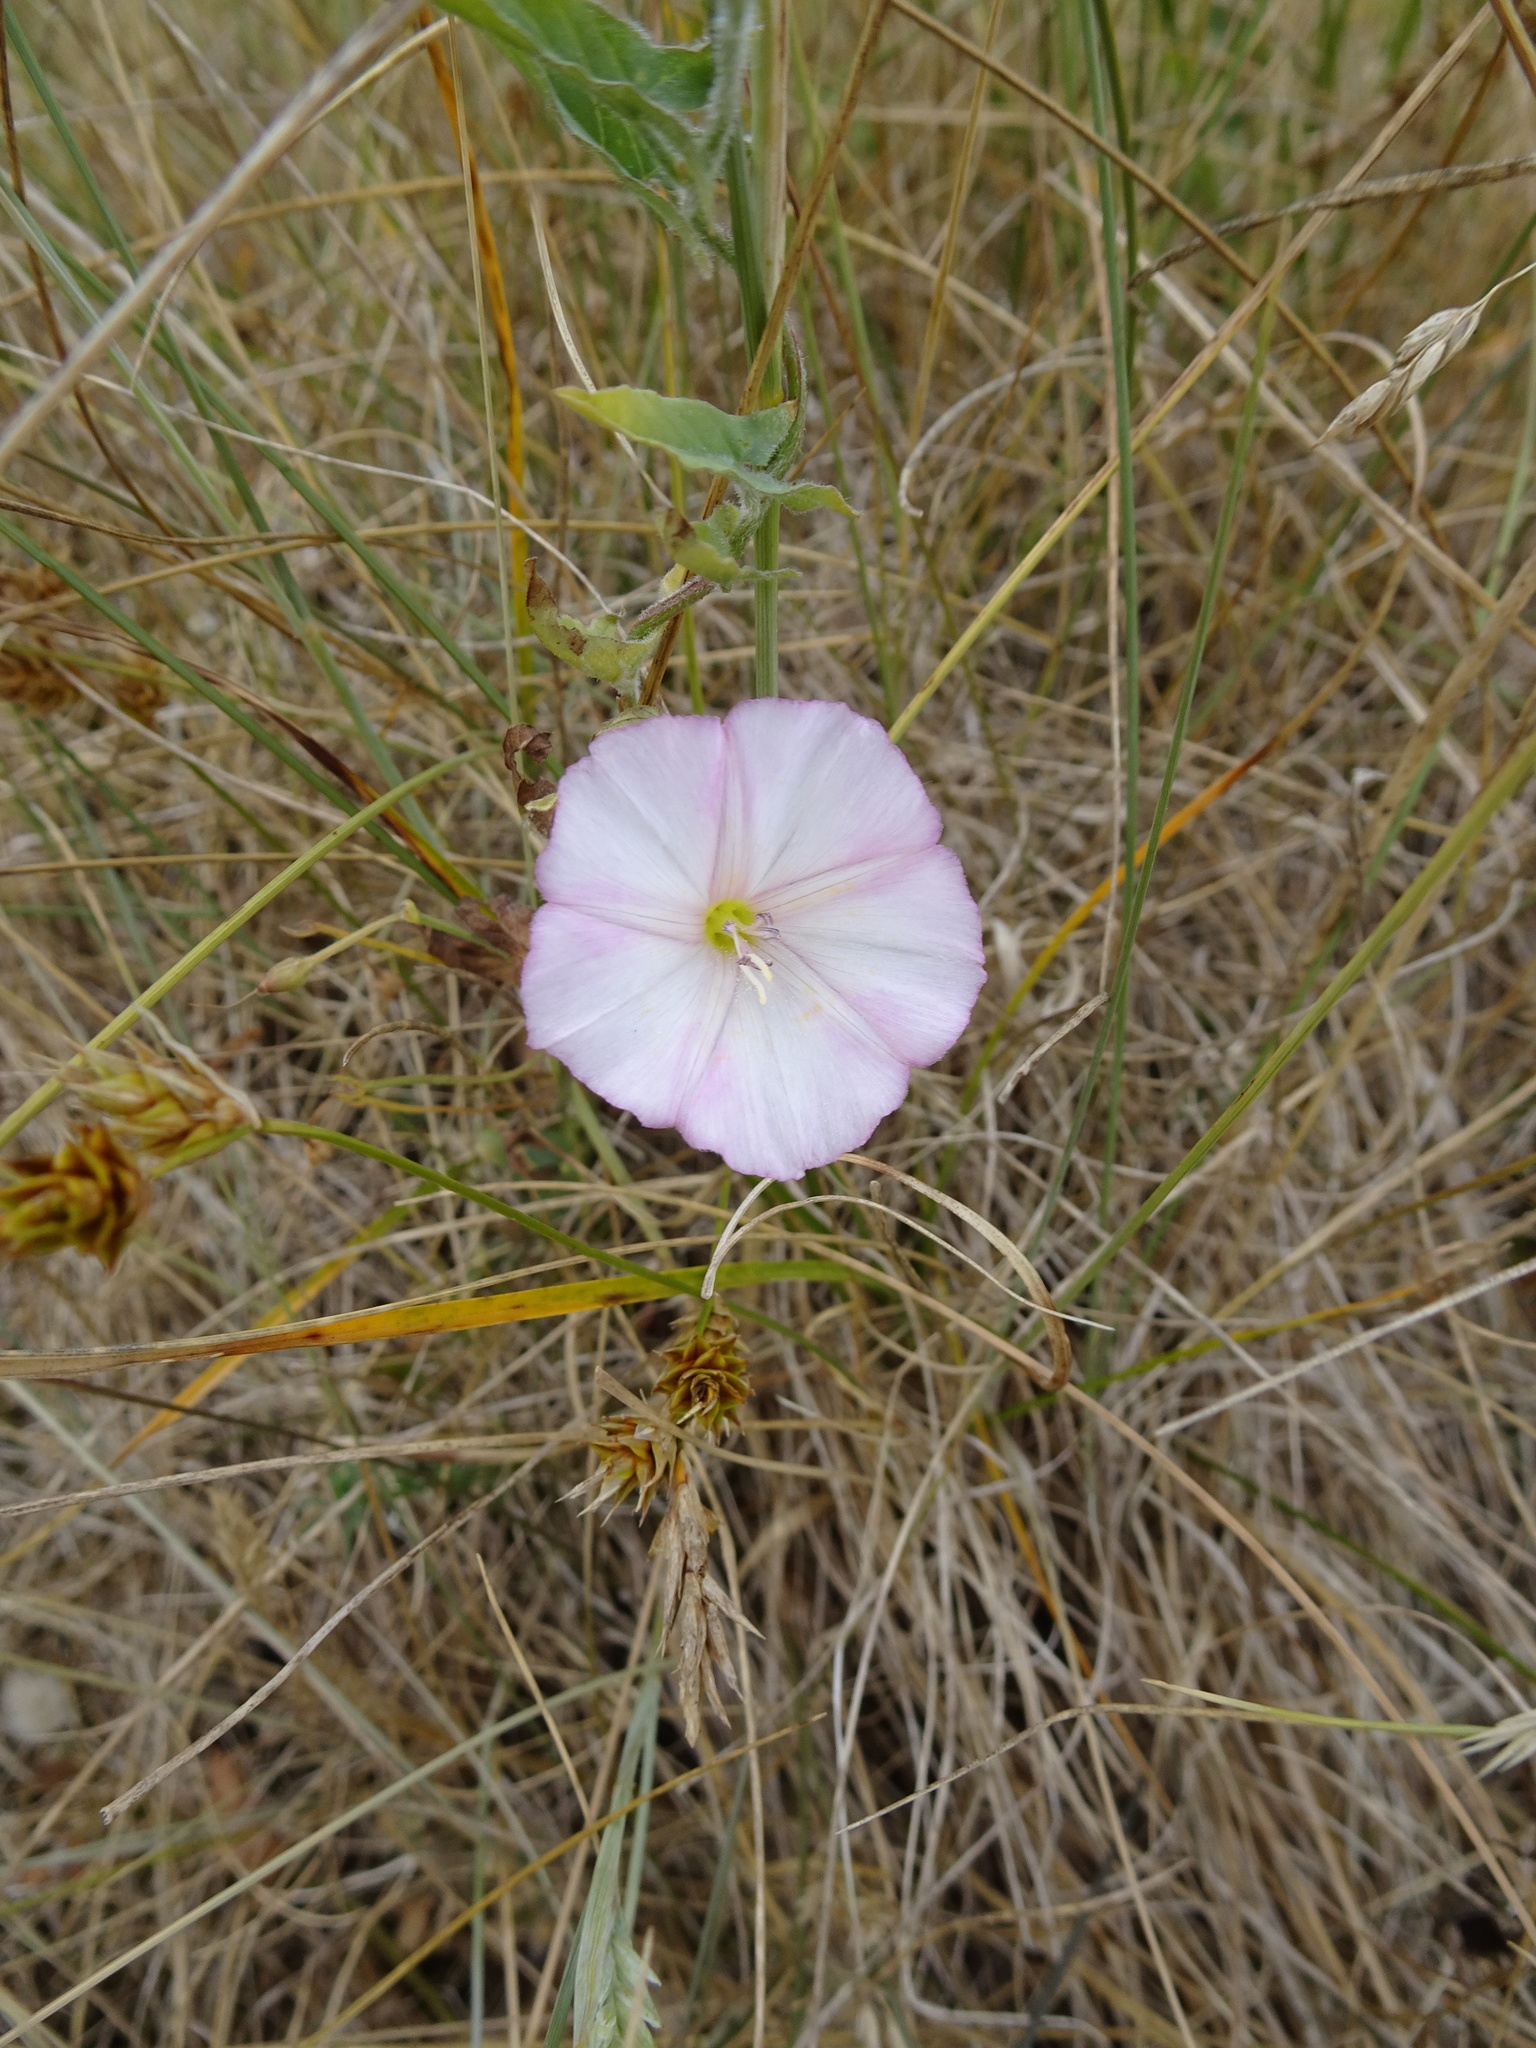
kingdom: Plantae
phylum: Tracheophyta
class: Magnoliopsida
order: Solanales
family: Convolvulaceae
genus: Convolvulus
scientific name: Convolvulus arvensis
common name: Field bindweed
